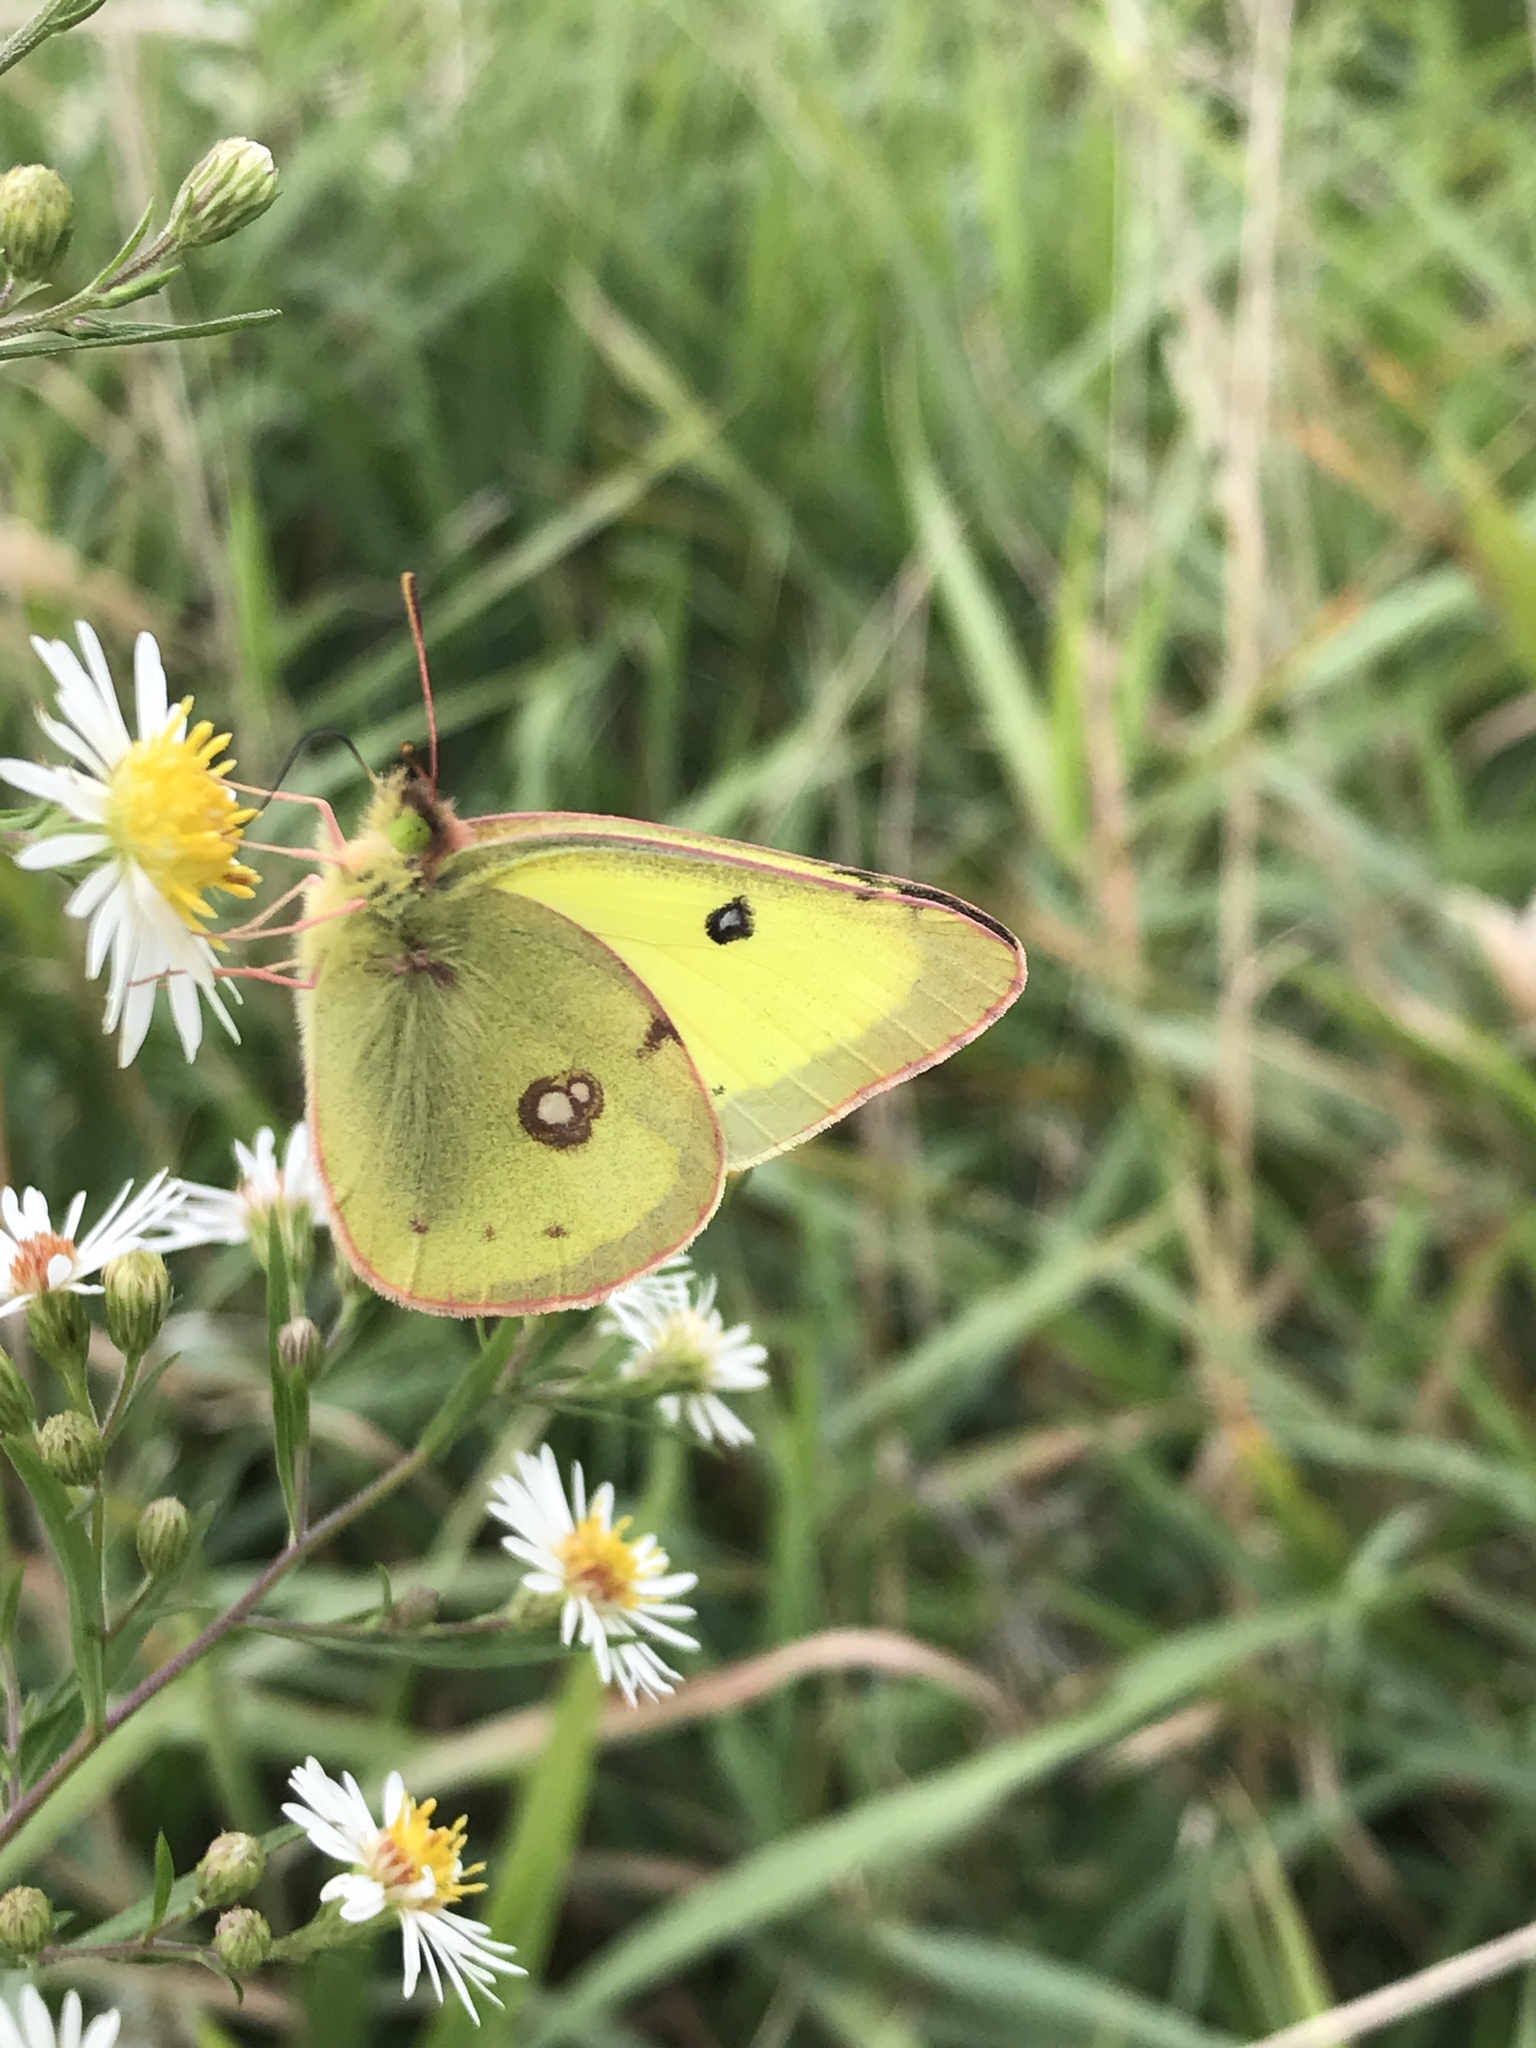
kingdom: Animalia
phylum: Arthropoda
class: Insecta
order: Lepidoptera
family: Pieridae
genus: Colias
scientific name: Colias philodice
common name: Clouded sulphur
